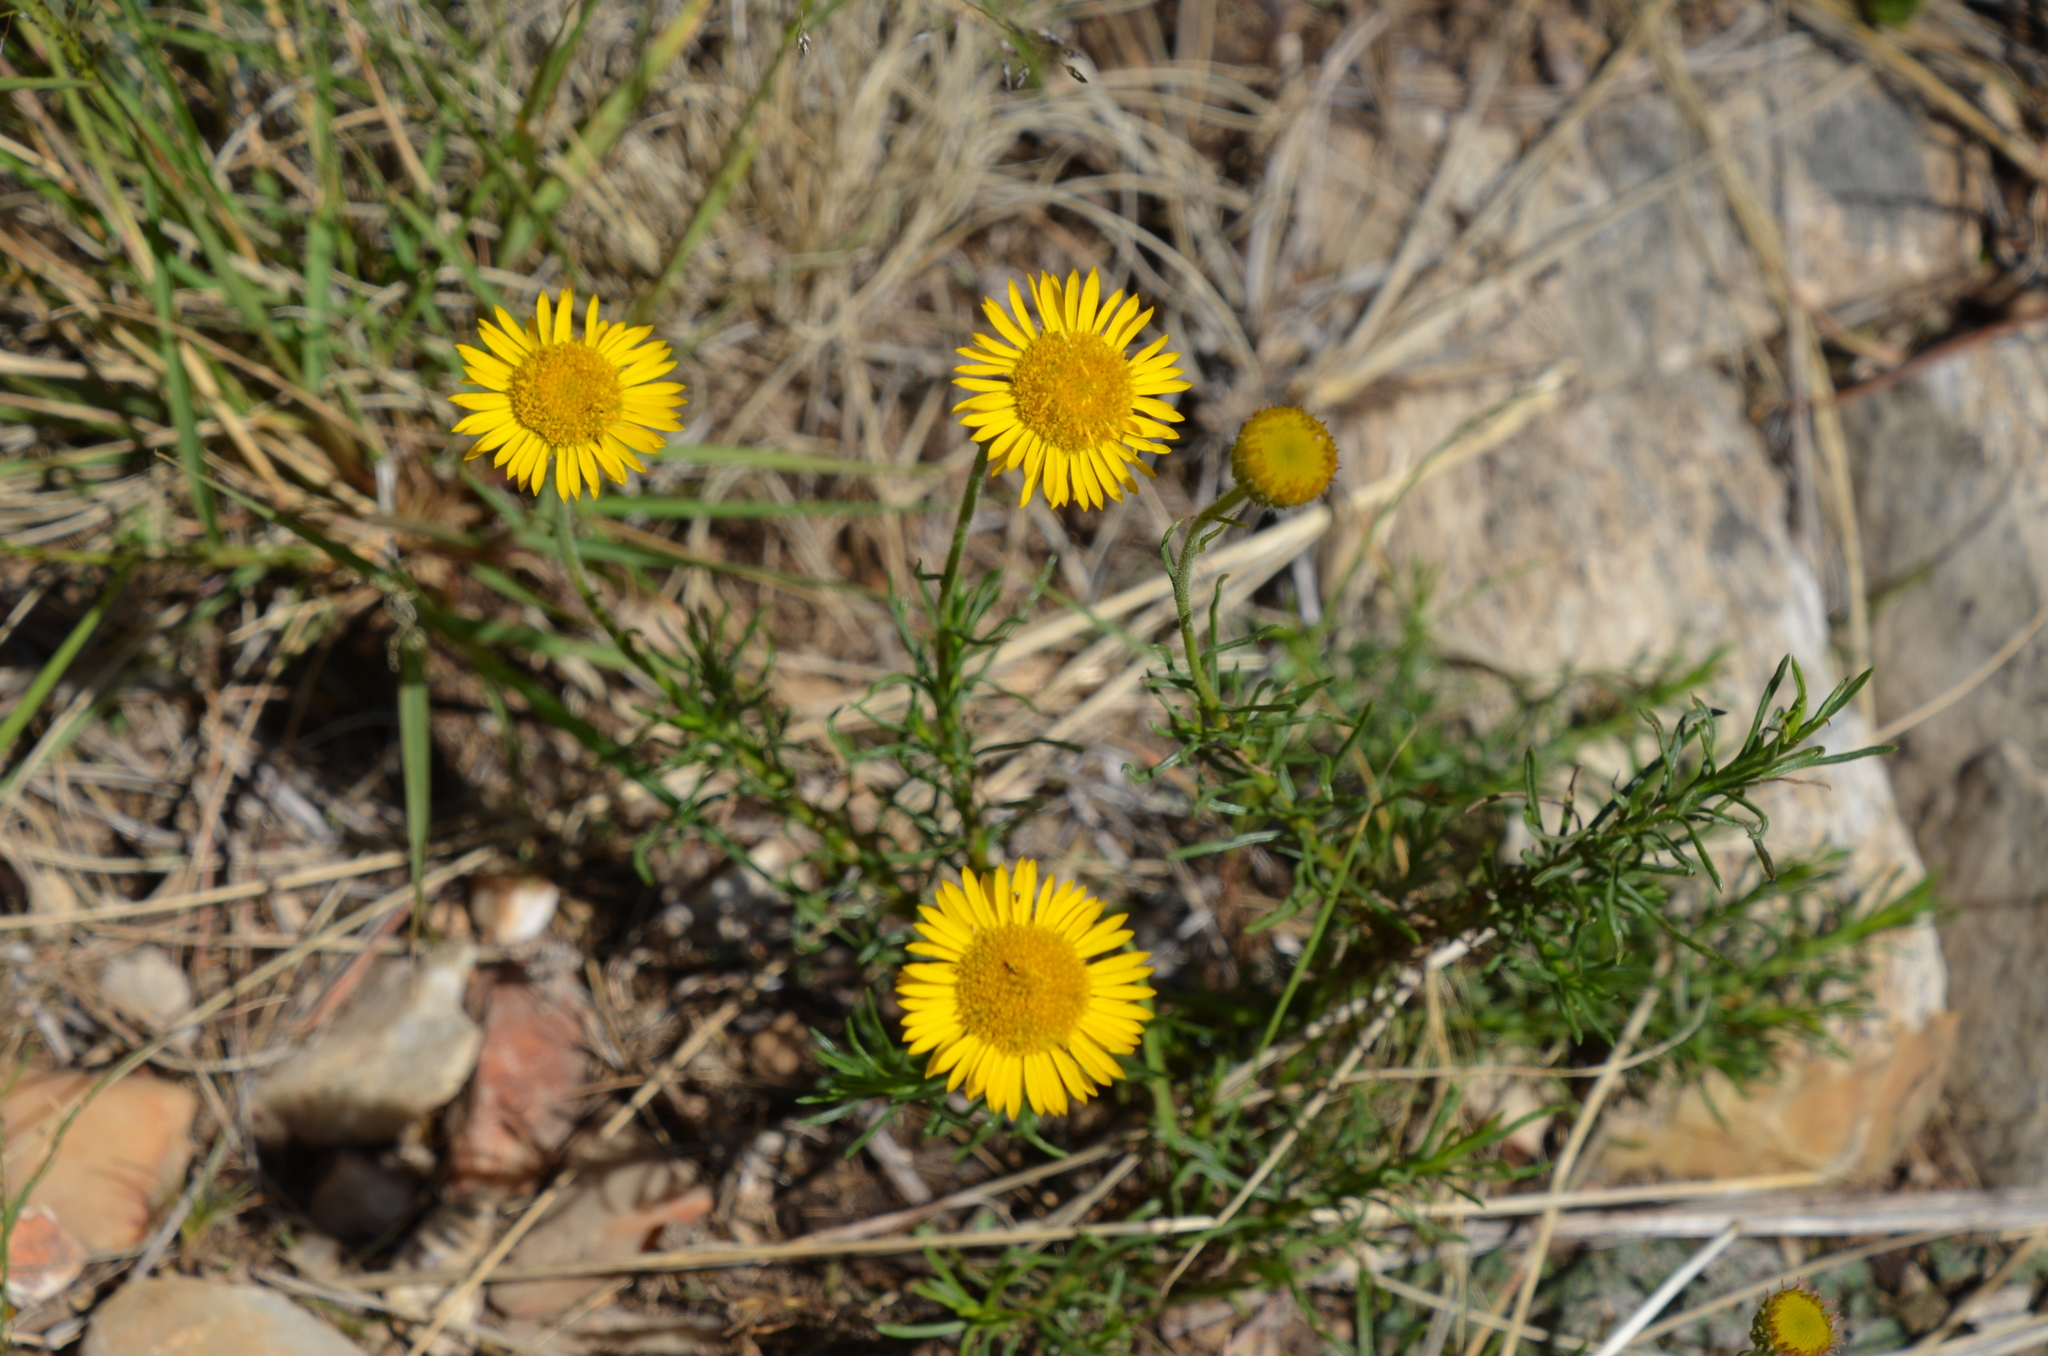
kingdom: Plantae
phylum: Tracheophyta
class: Magnoliopsida
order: Asterales
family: Asteraceae
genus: Neja
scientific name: Neja pinifolia
